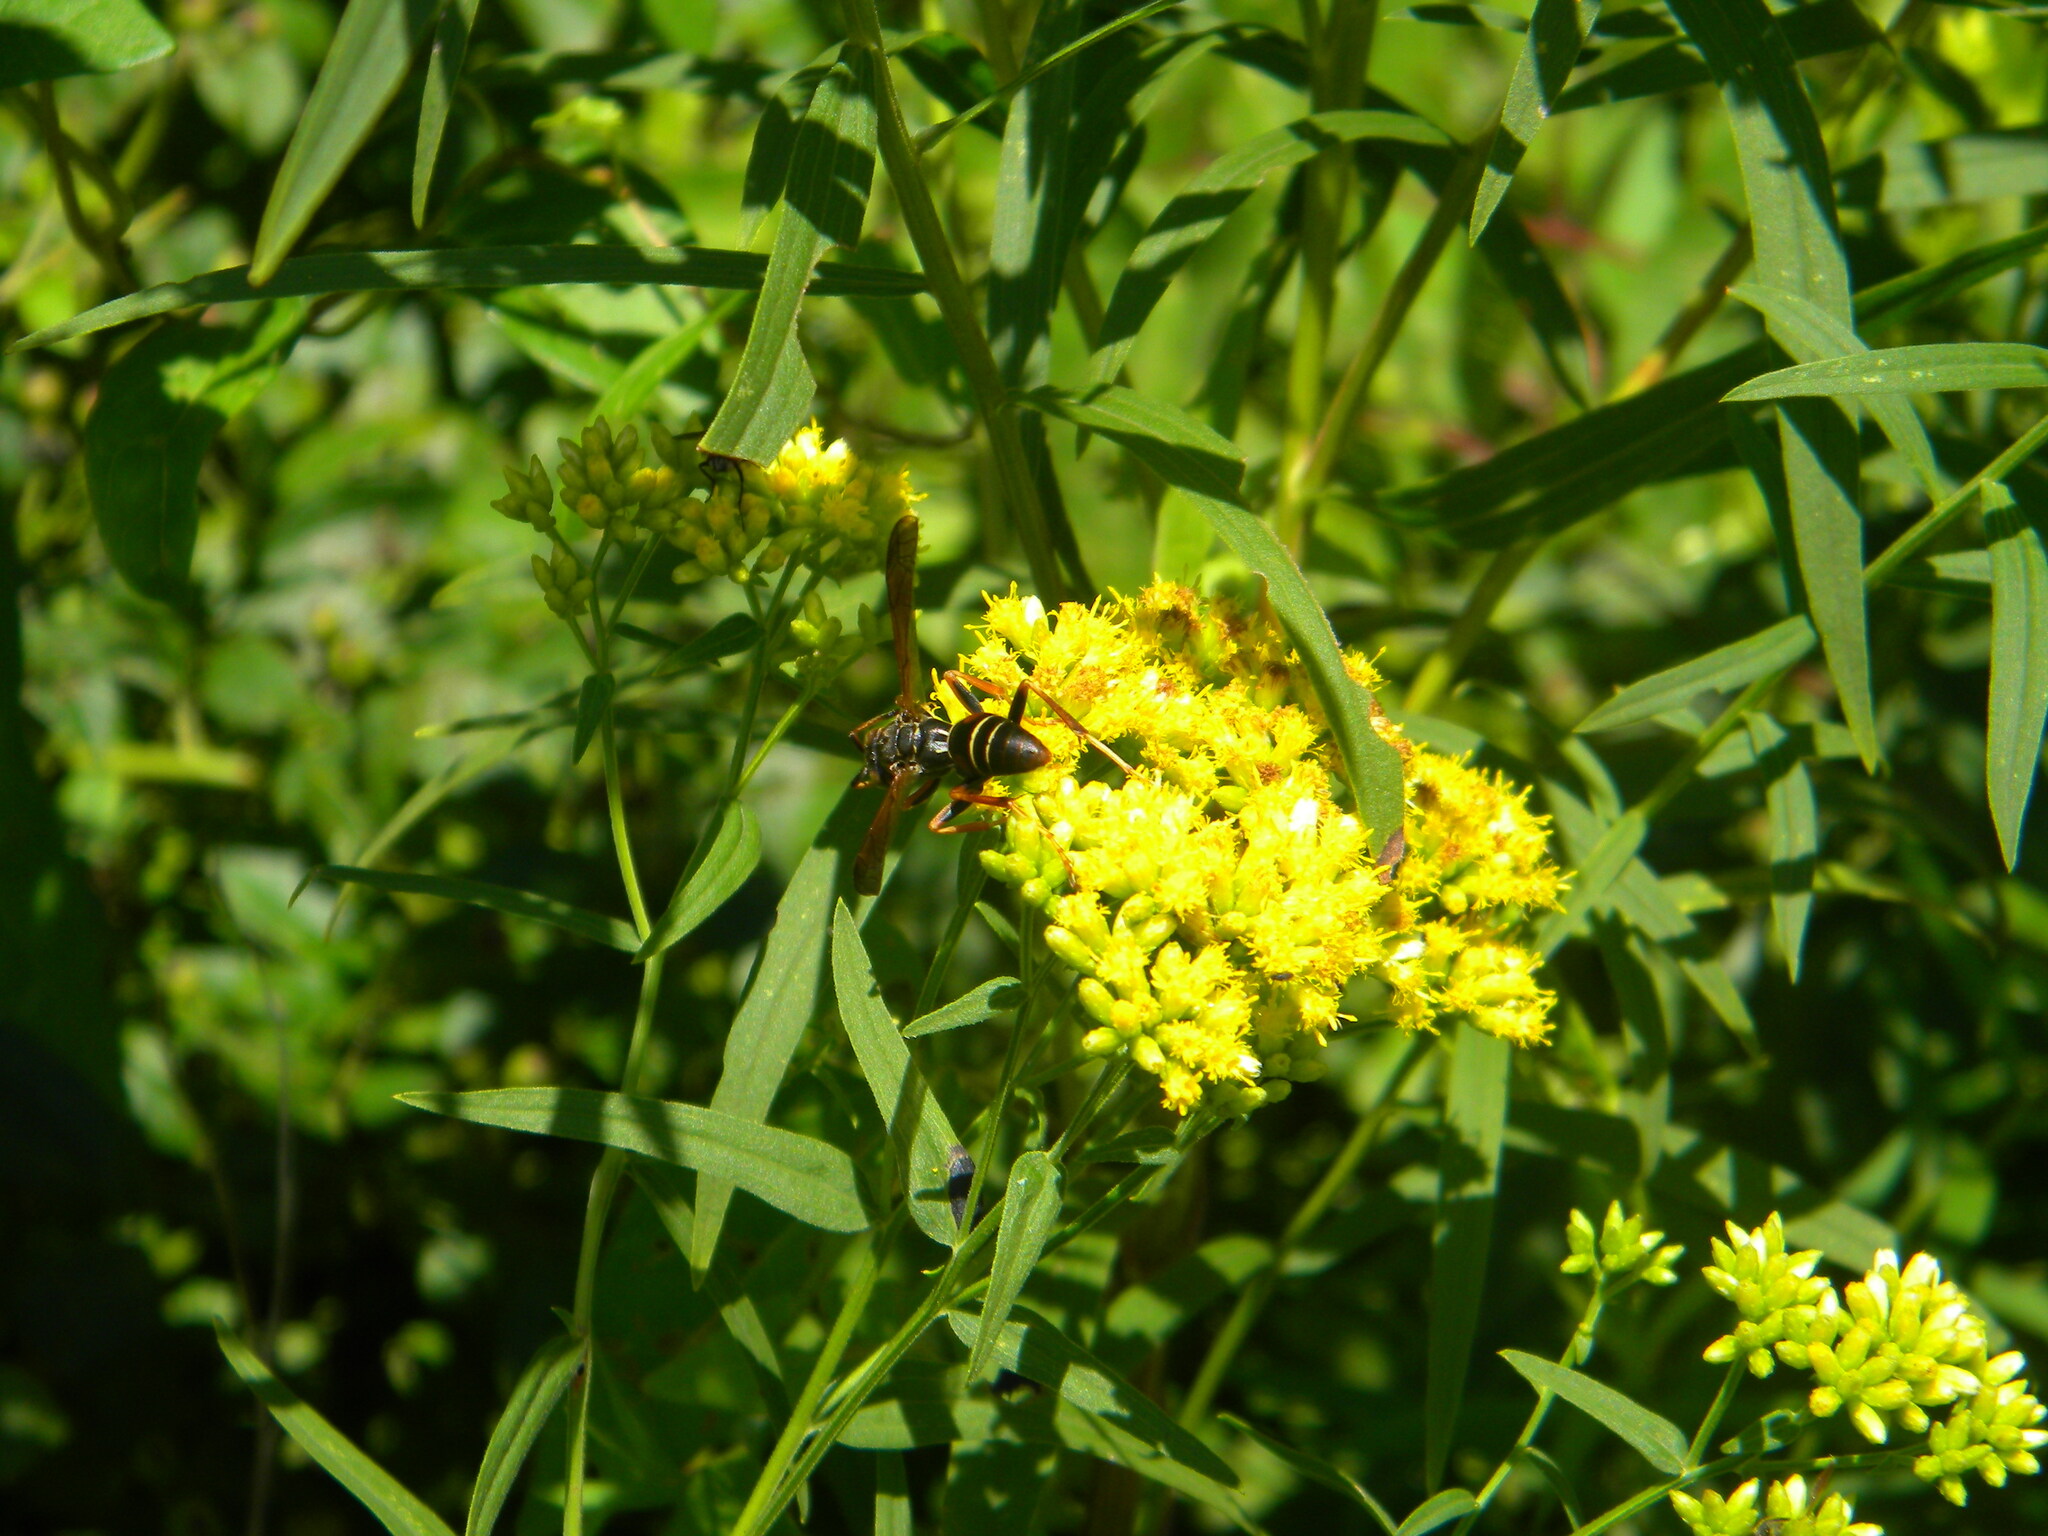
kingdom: Animalia
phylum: Arthropoda
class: Insecta
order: Hymenoptera
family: Eumenidae
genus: Polistes
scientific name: Polistes fuscatus
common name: Dark paper wasp
